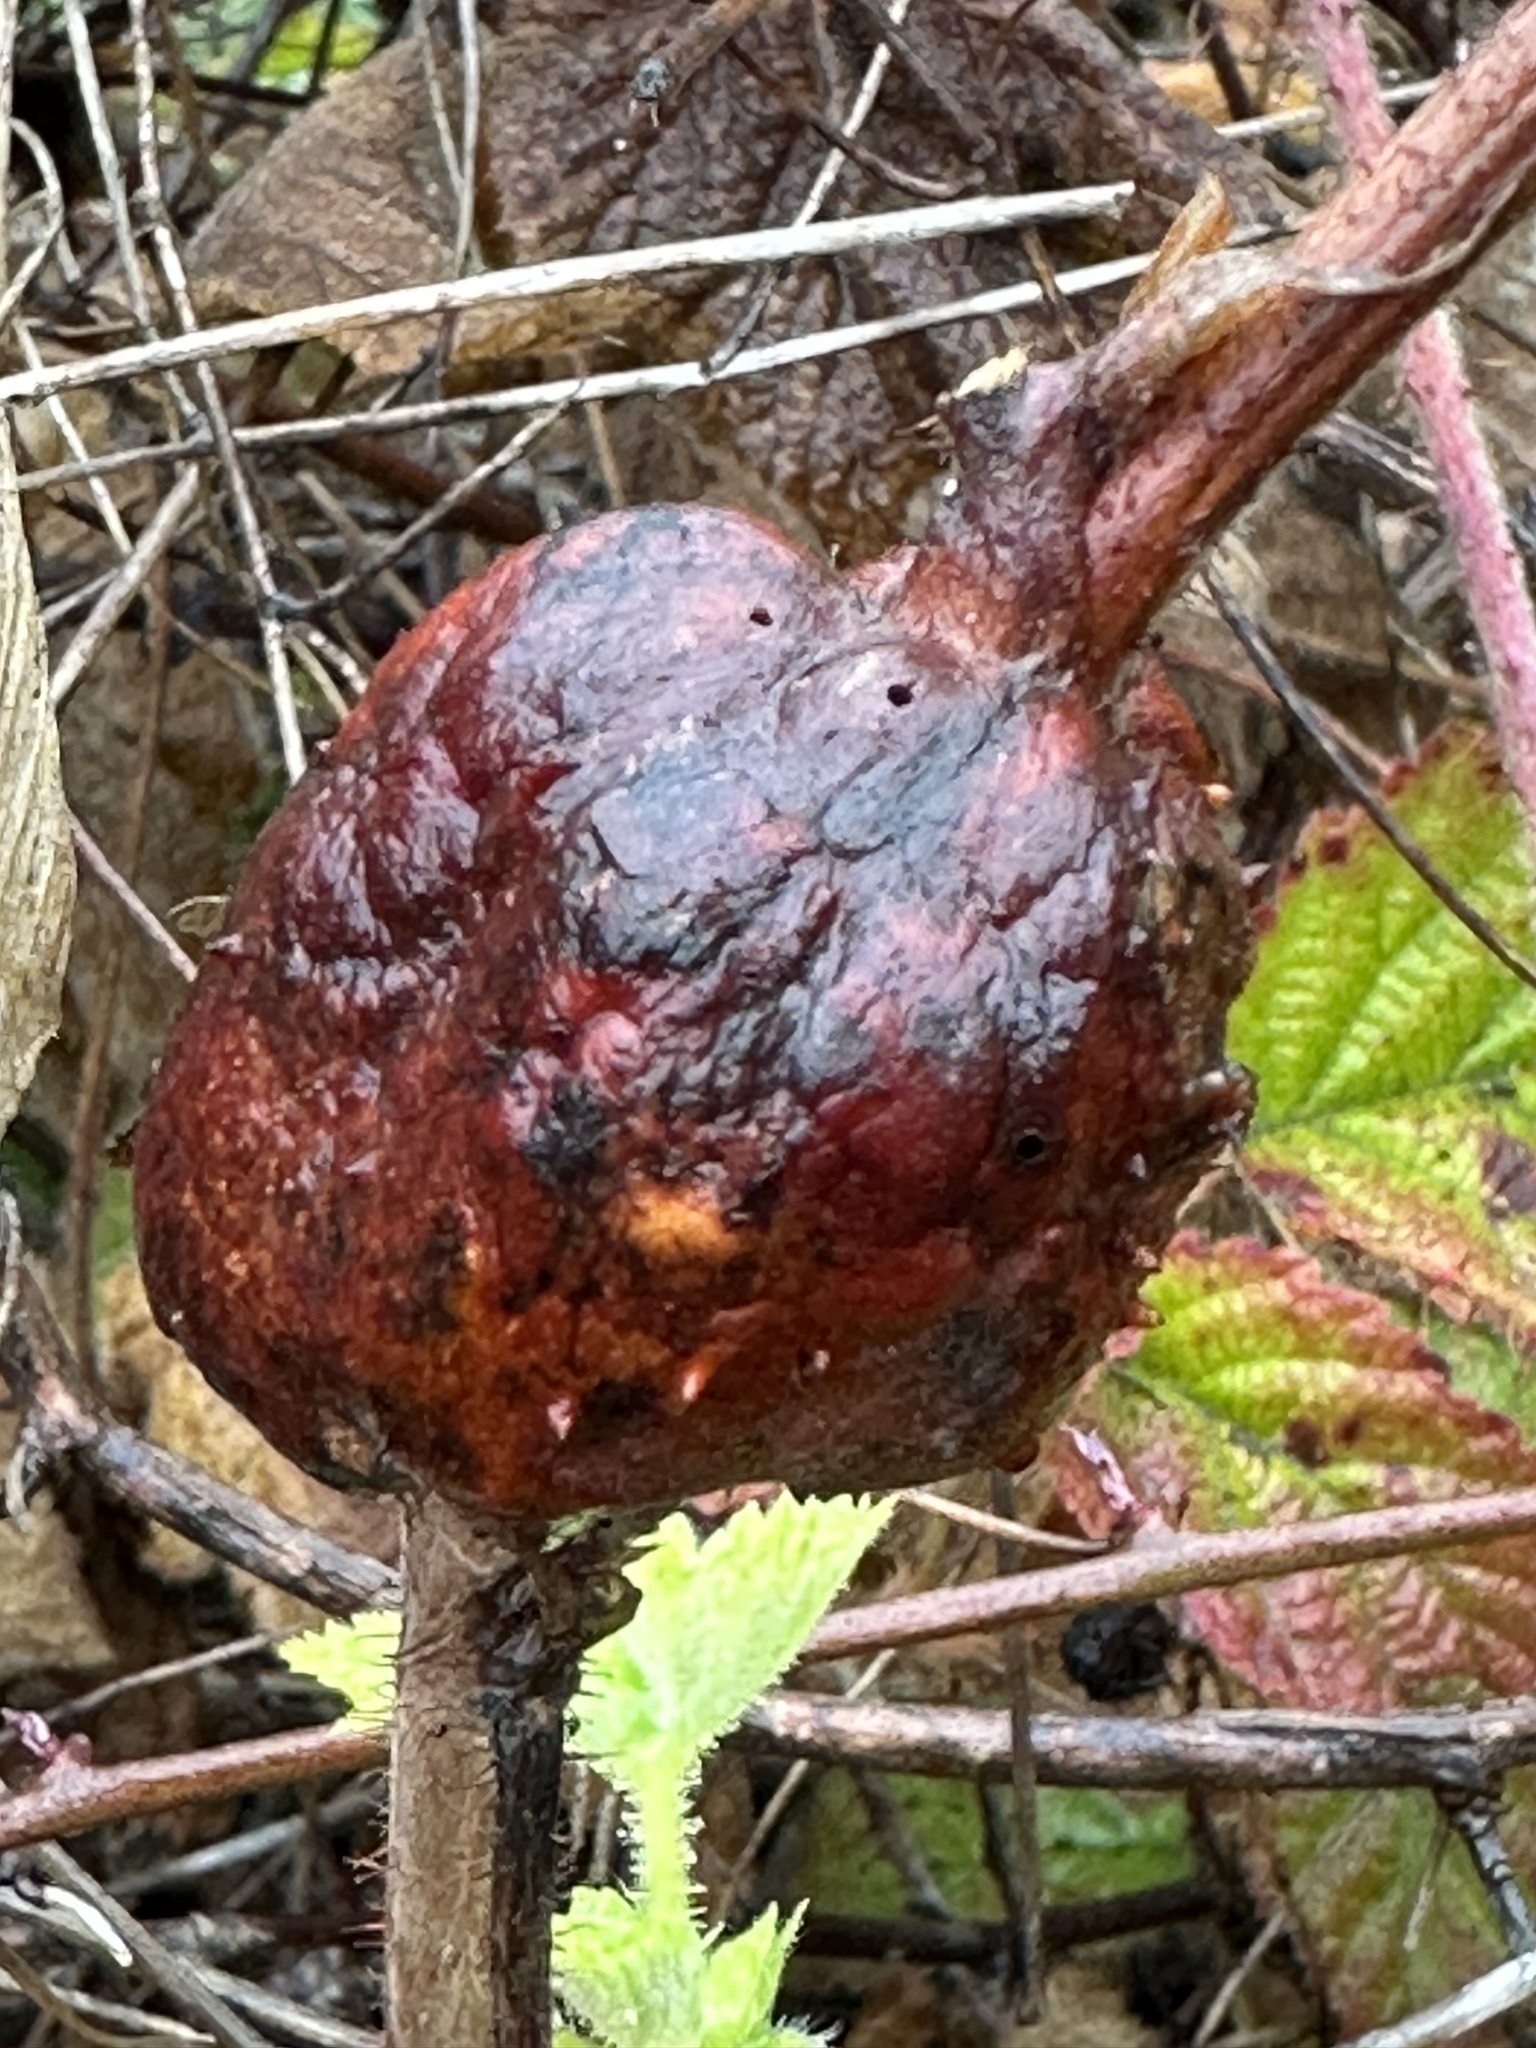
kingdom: Animalia
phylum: Arthropoda
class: Insecta
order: Hymenoptera
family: Cynipidae
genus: Diastrophus
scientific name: Diastrophus
